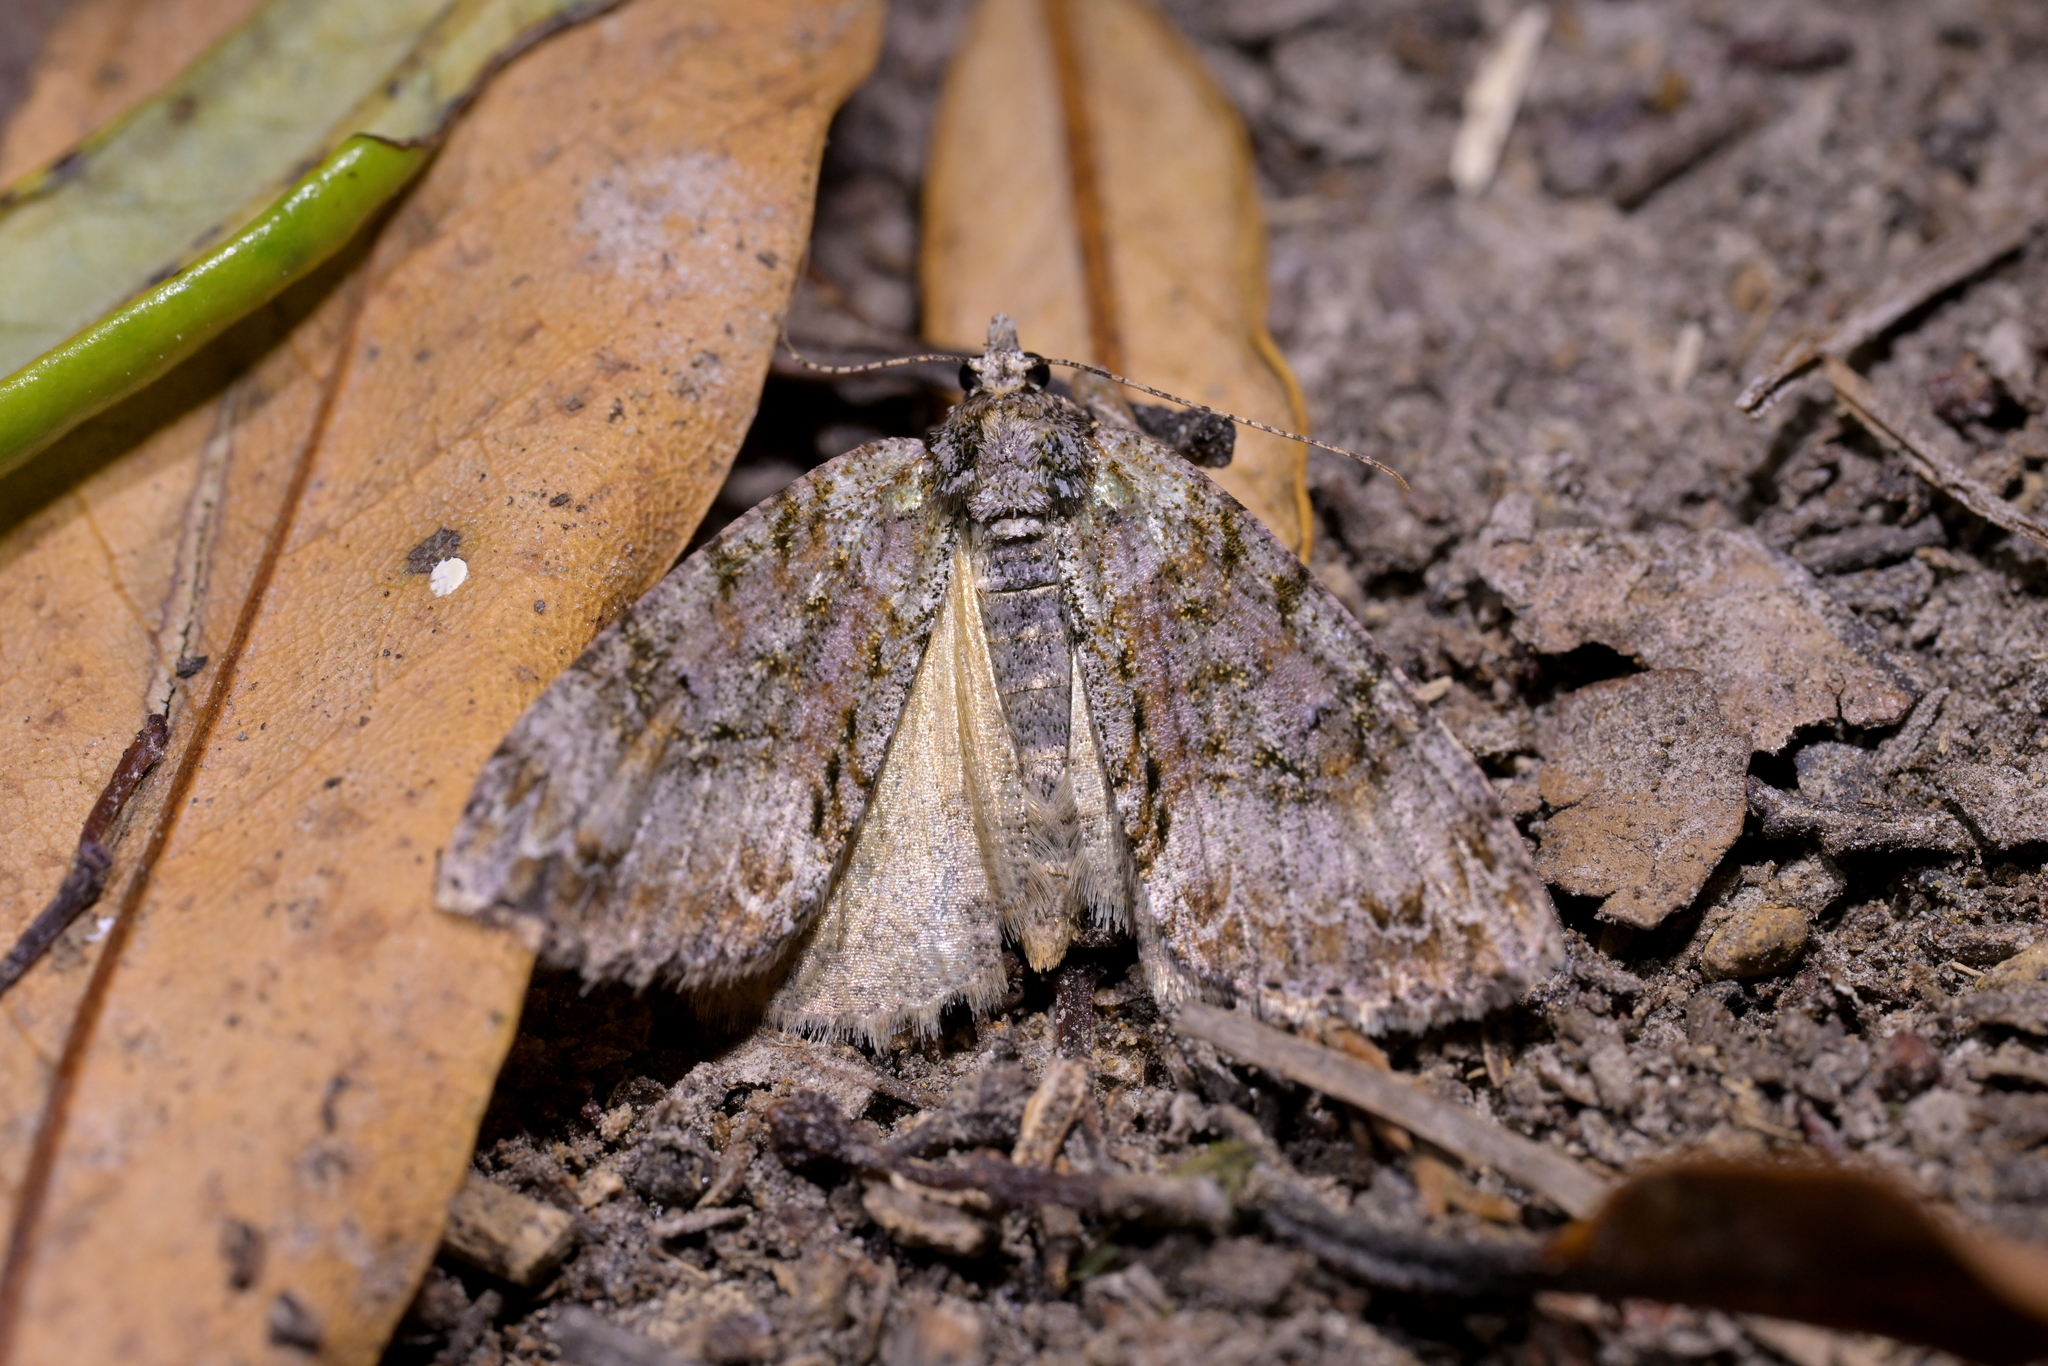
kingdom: Animalia
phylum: Arthropoda
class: Insecta
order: Lepidoptera
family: Geometridae
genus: Pseudocoremia
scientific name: Pseudocoremia suavis
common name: Common forest looper
